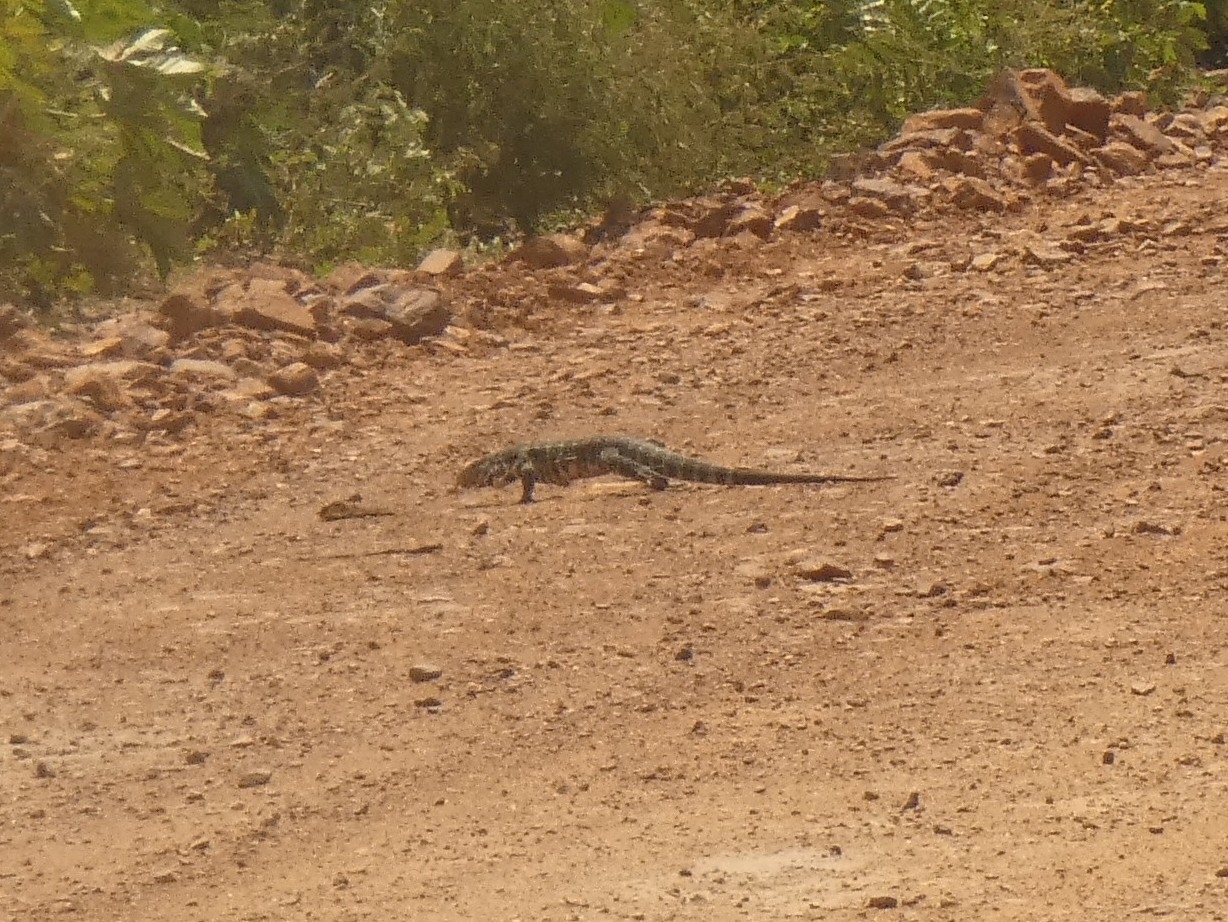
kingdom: Animalia
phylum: Chordata
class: Squamata
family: Teiidae
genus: Salvator
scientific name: Salvator merianae
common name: Argentine black and white tegu
